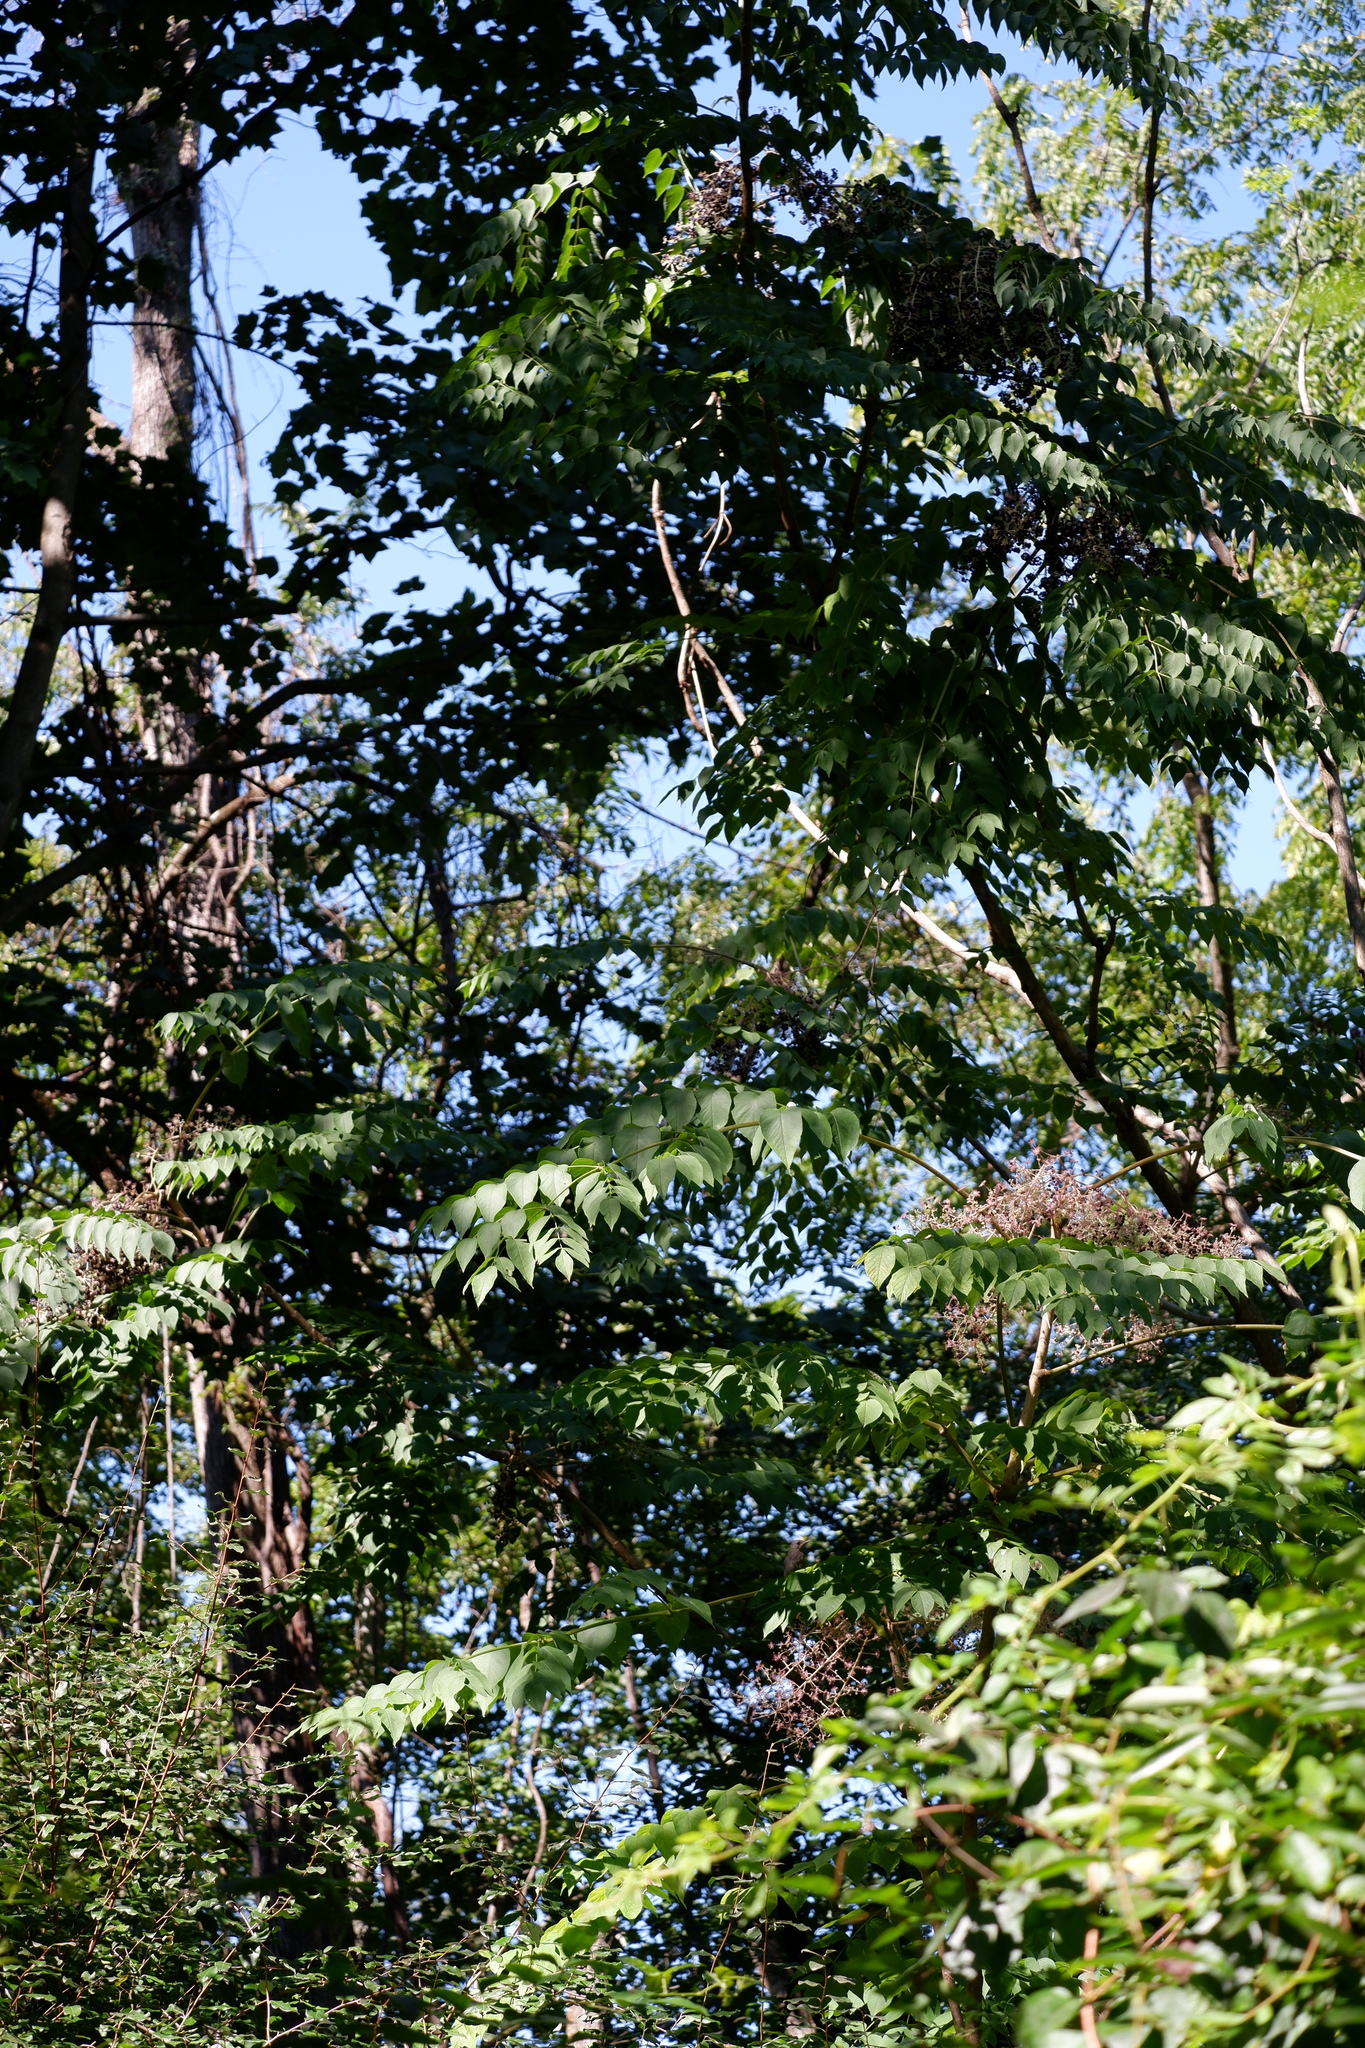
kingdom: Plantae
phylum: Tracheophyta
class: Magnoliopsida
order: Apiales
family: Araliaceae
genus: Aralia
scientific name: Aralia elata
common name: Japanese angelica-tree
